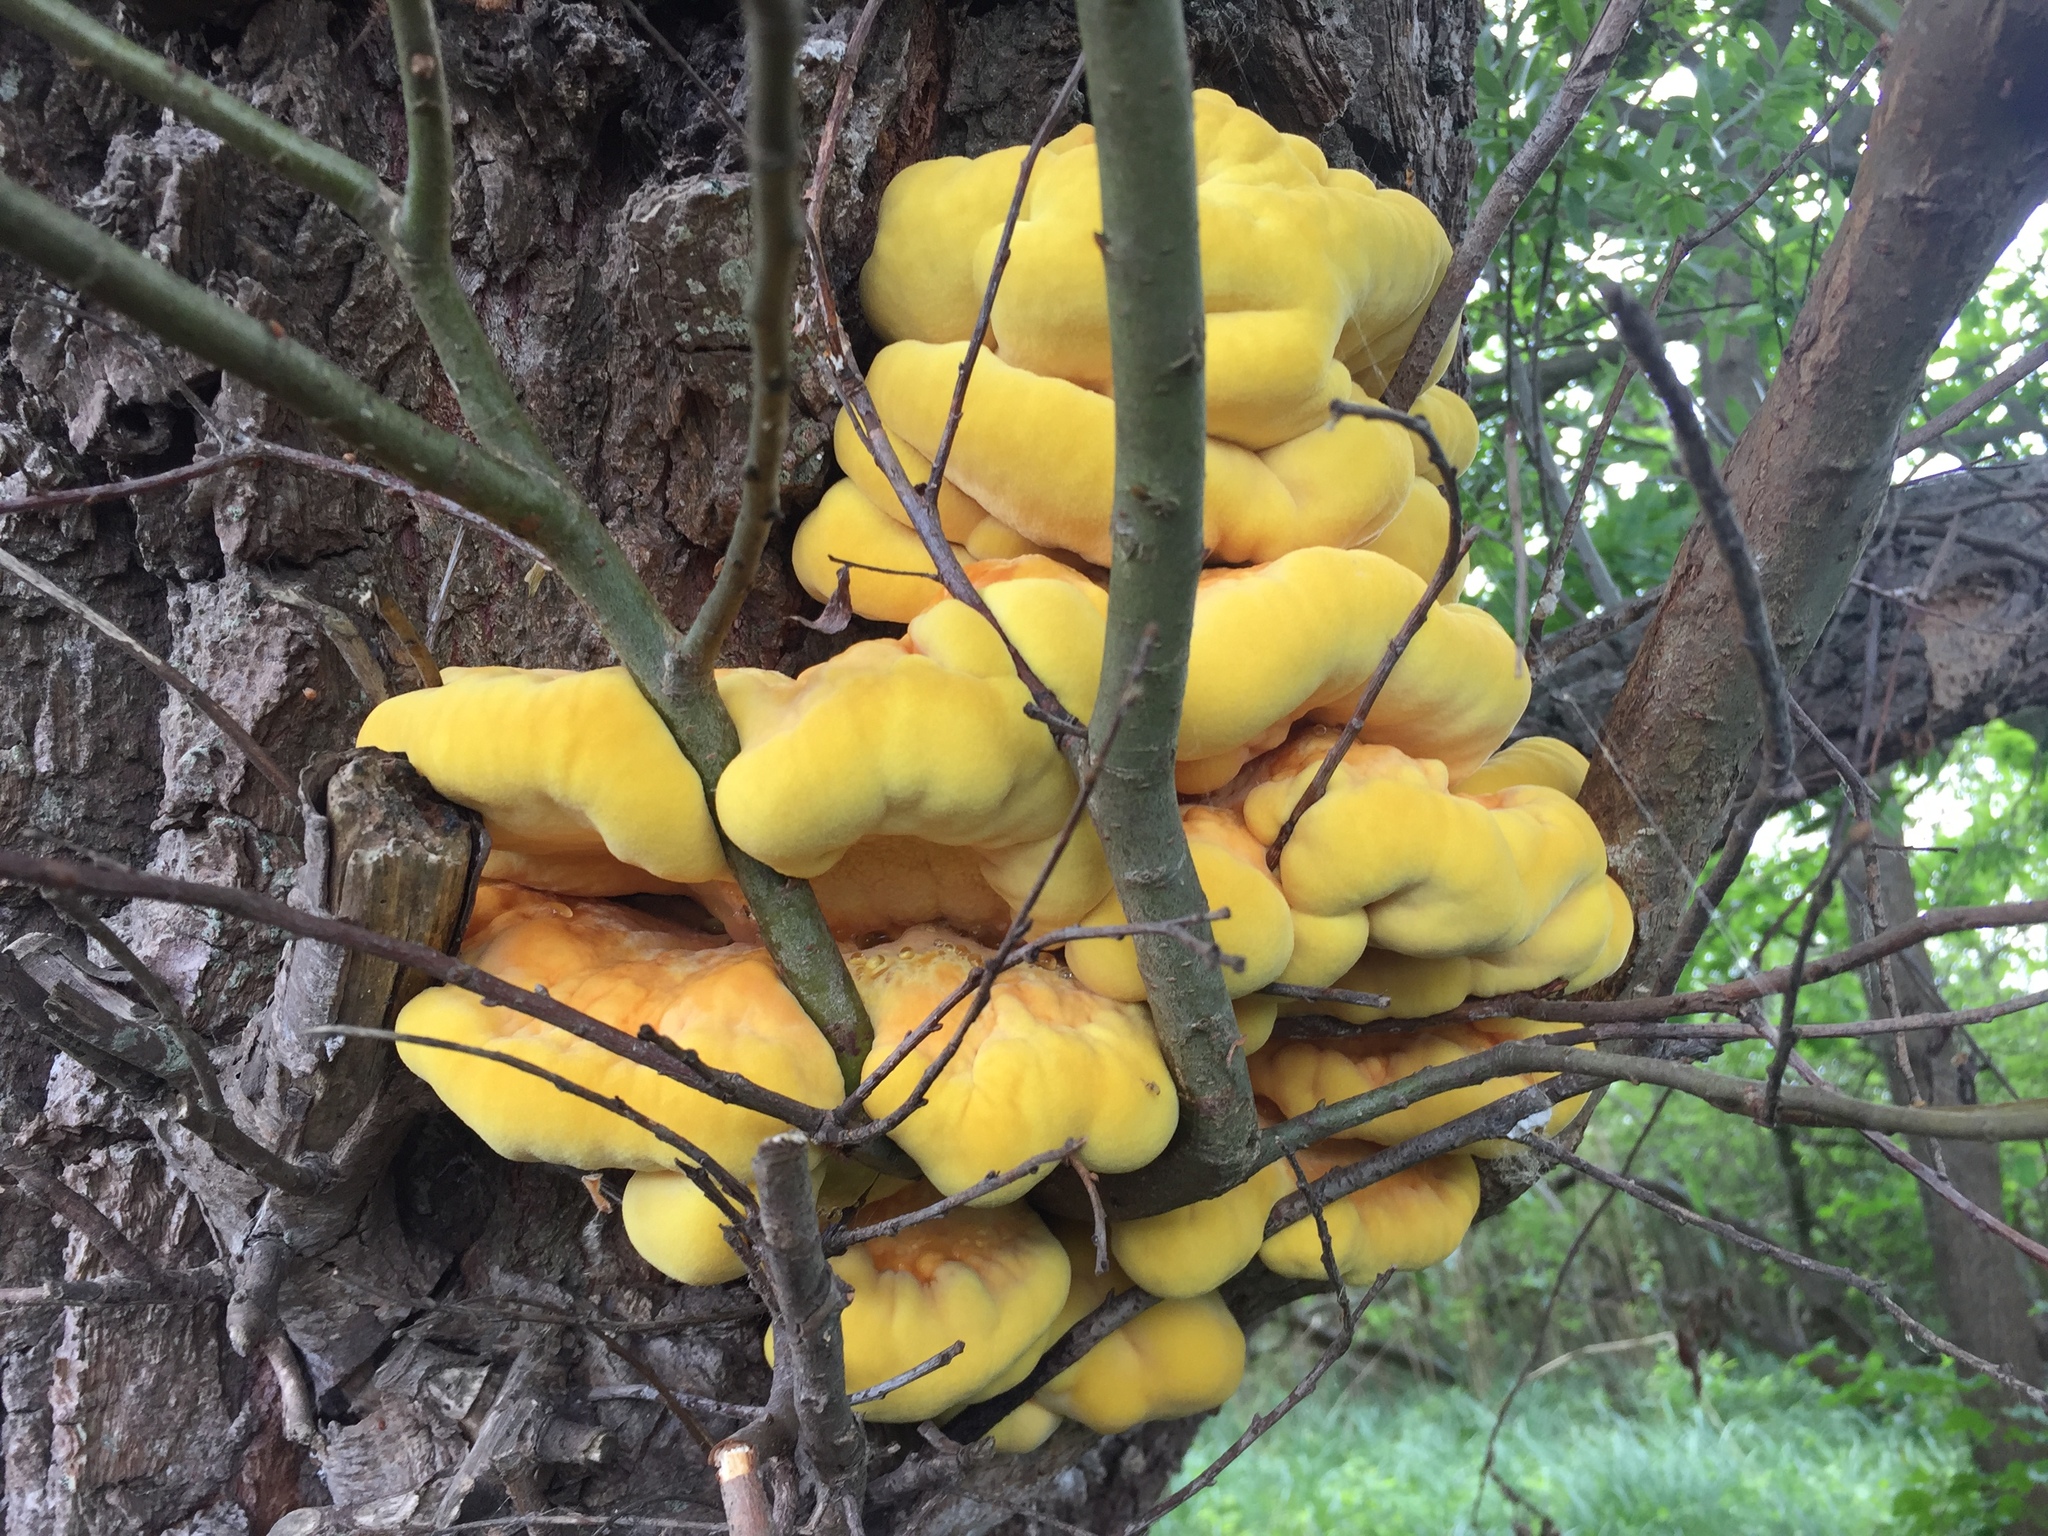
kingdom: Fungi
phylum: Basidiomycota
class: Agaricomycetes
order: Polyporales
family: Laetiporaceae
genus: Laetiporus
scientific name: Laetiporus sulphureus
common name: Chicken of the woods
